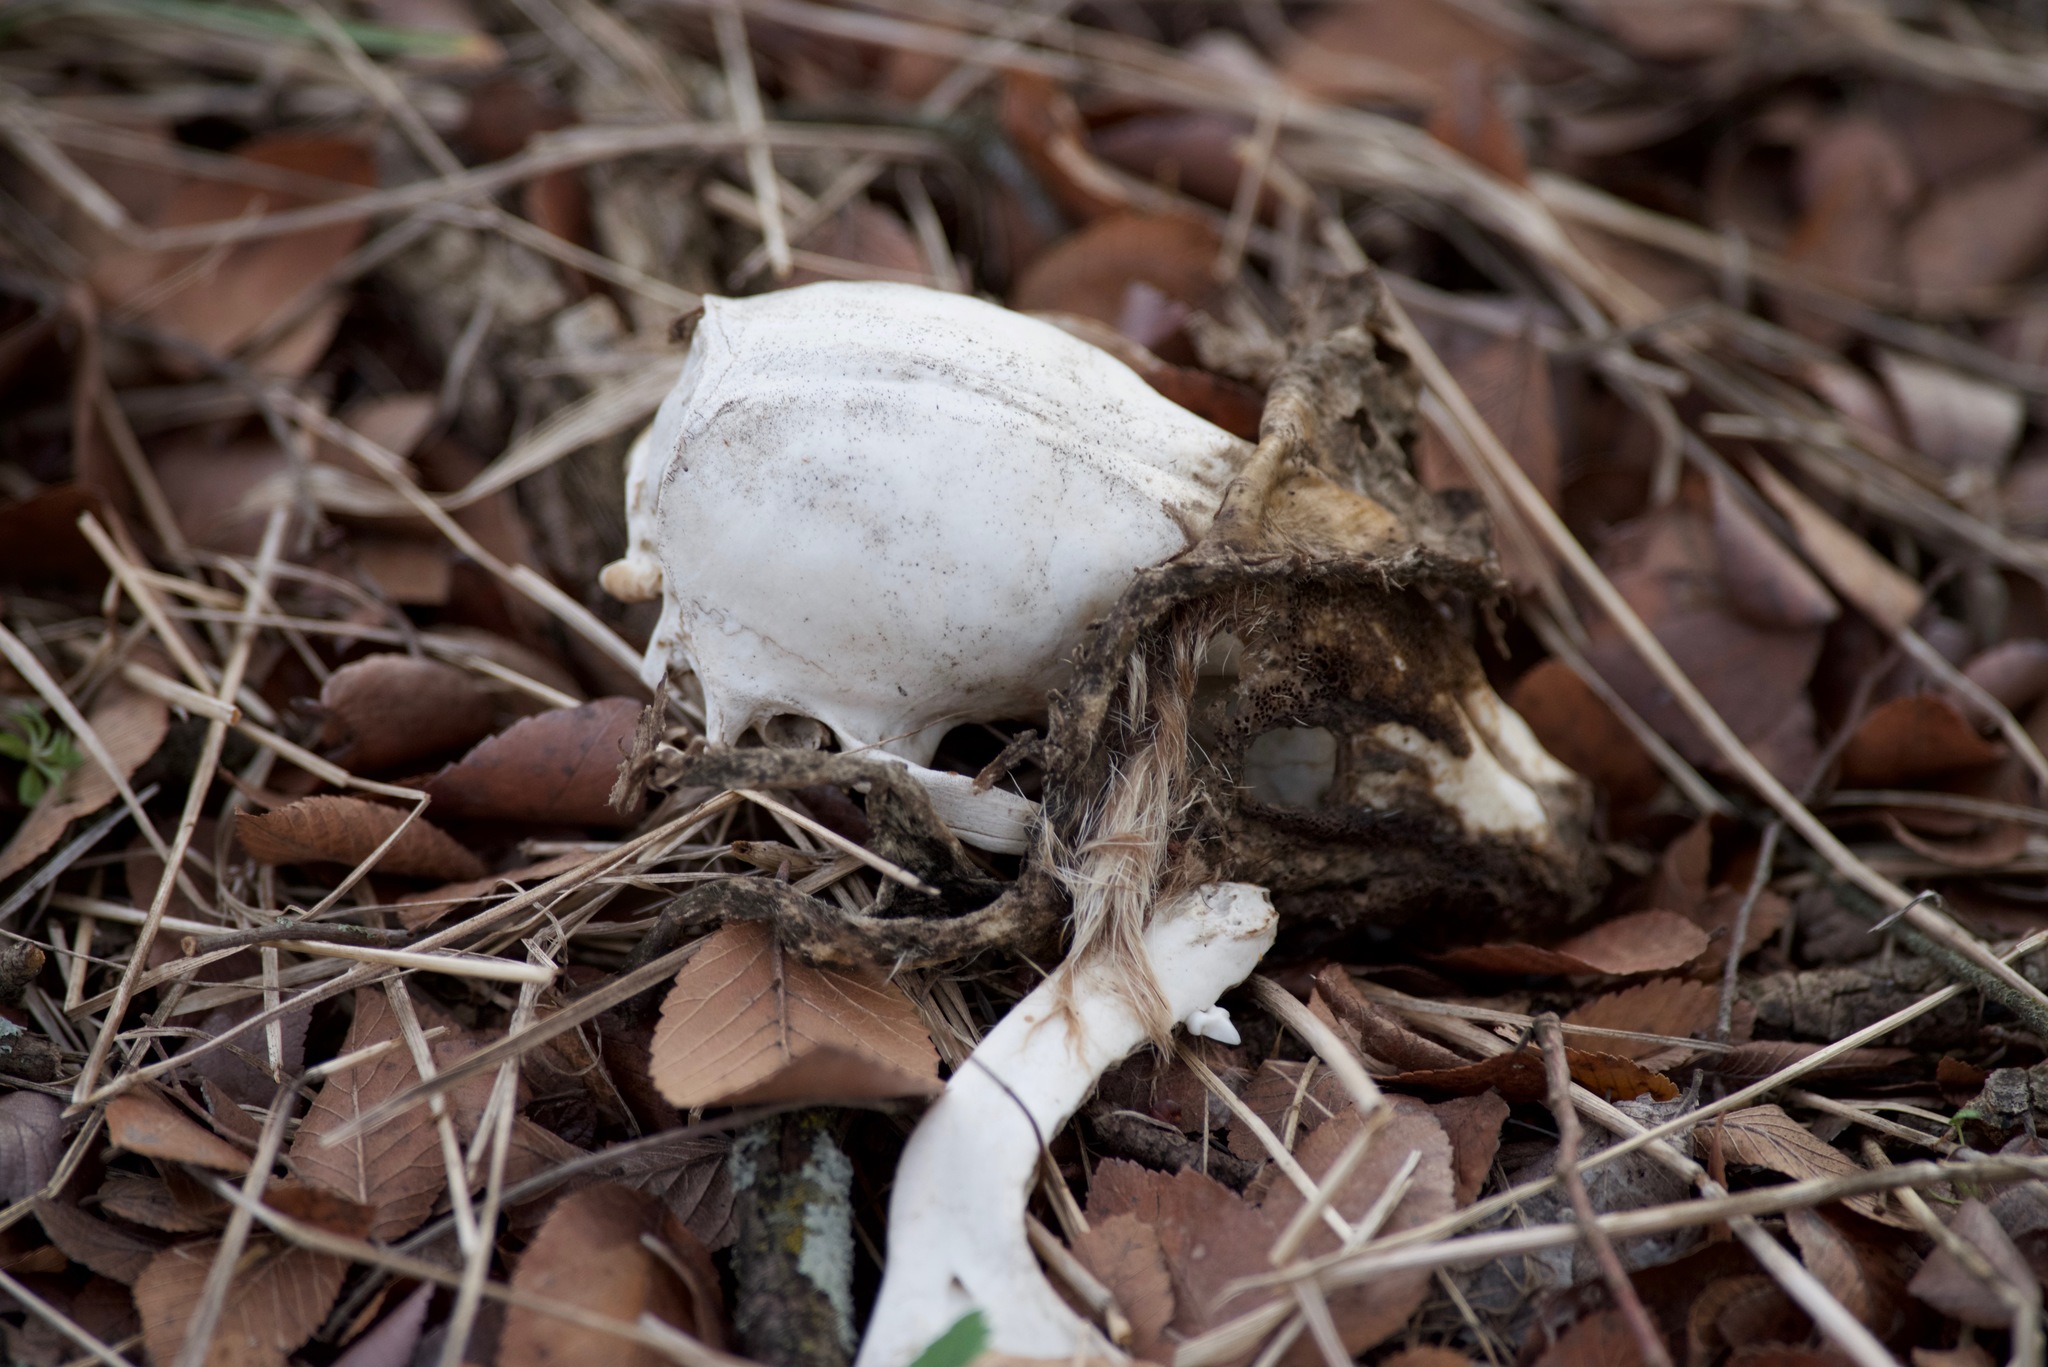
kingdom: Animalia
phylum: Chordata
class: Mammalia
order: Carnivora
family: Procyonidae
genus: Procyon
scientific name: Procyon lotor
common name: Raccoon
